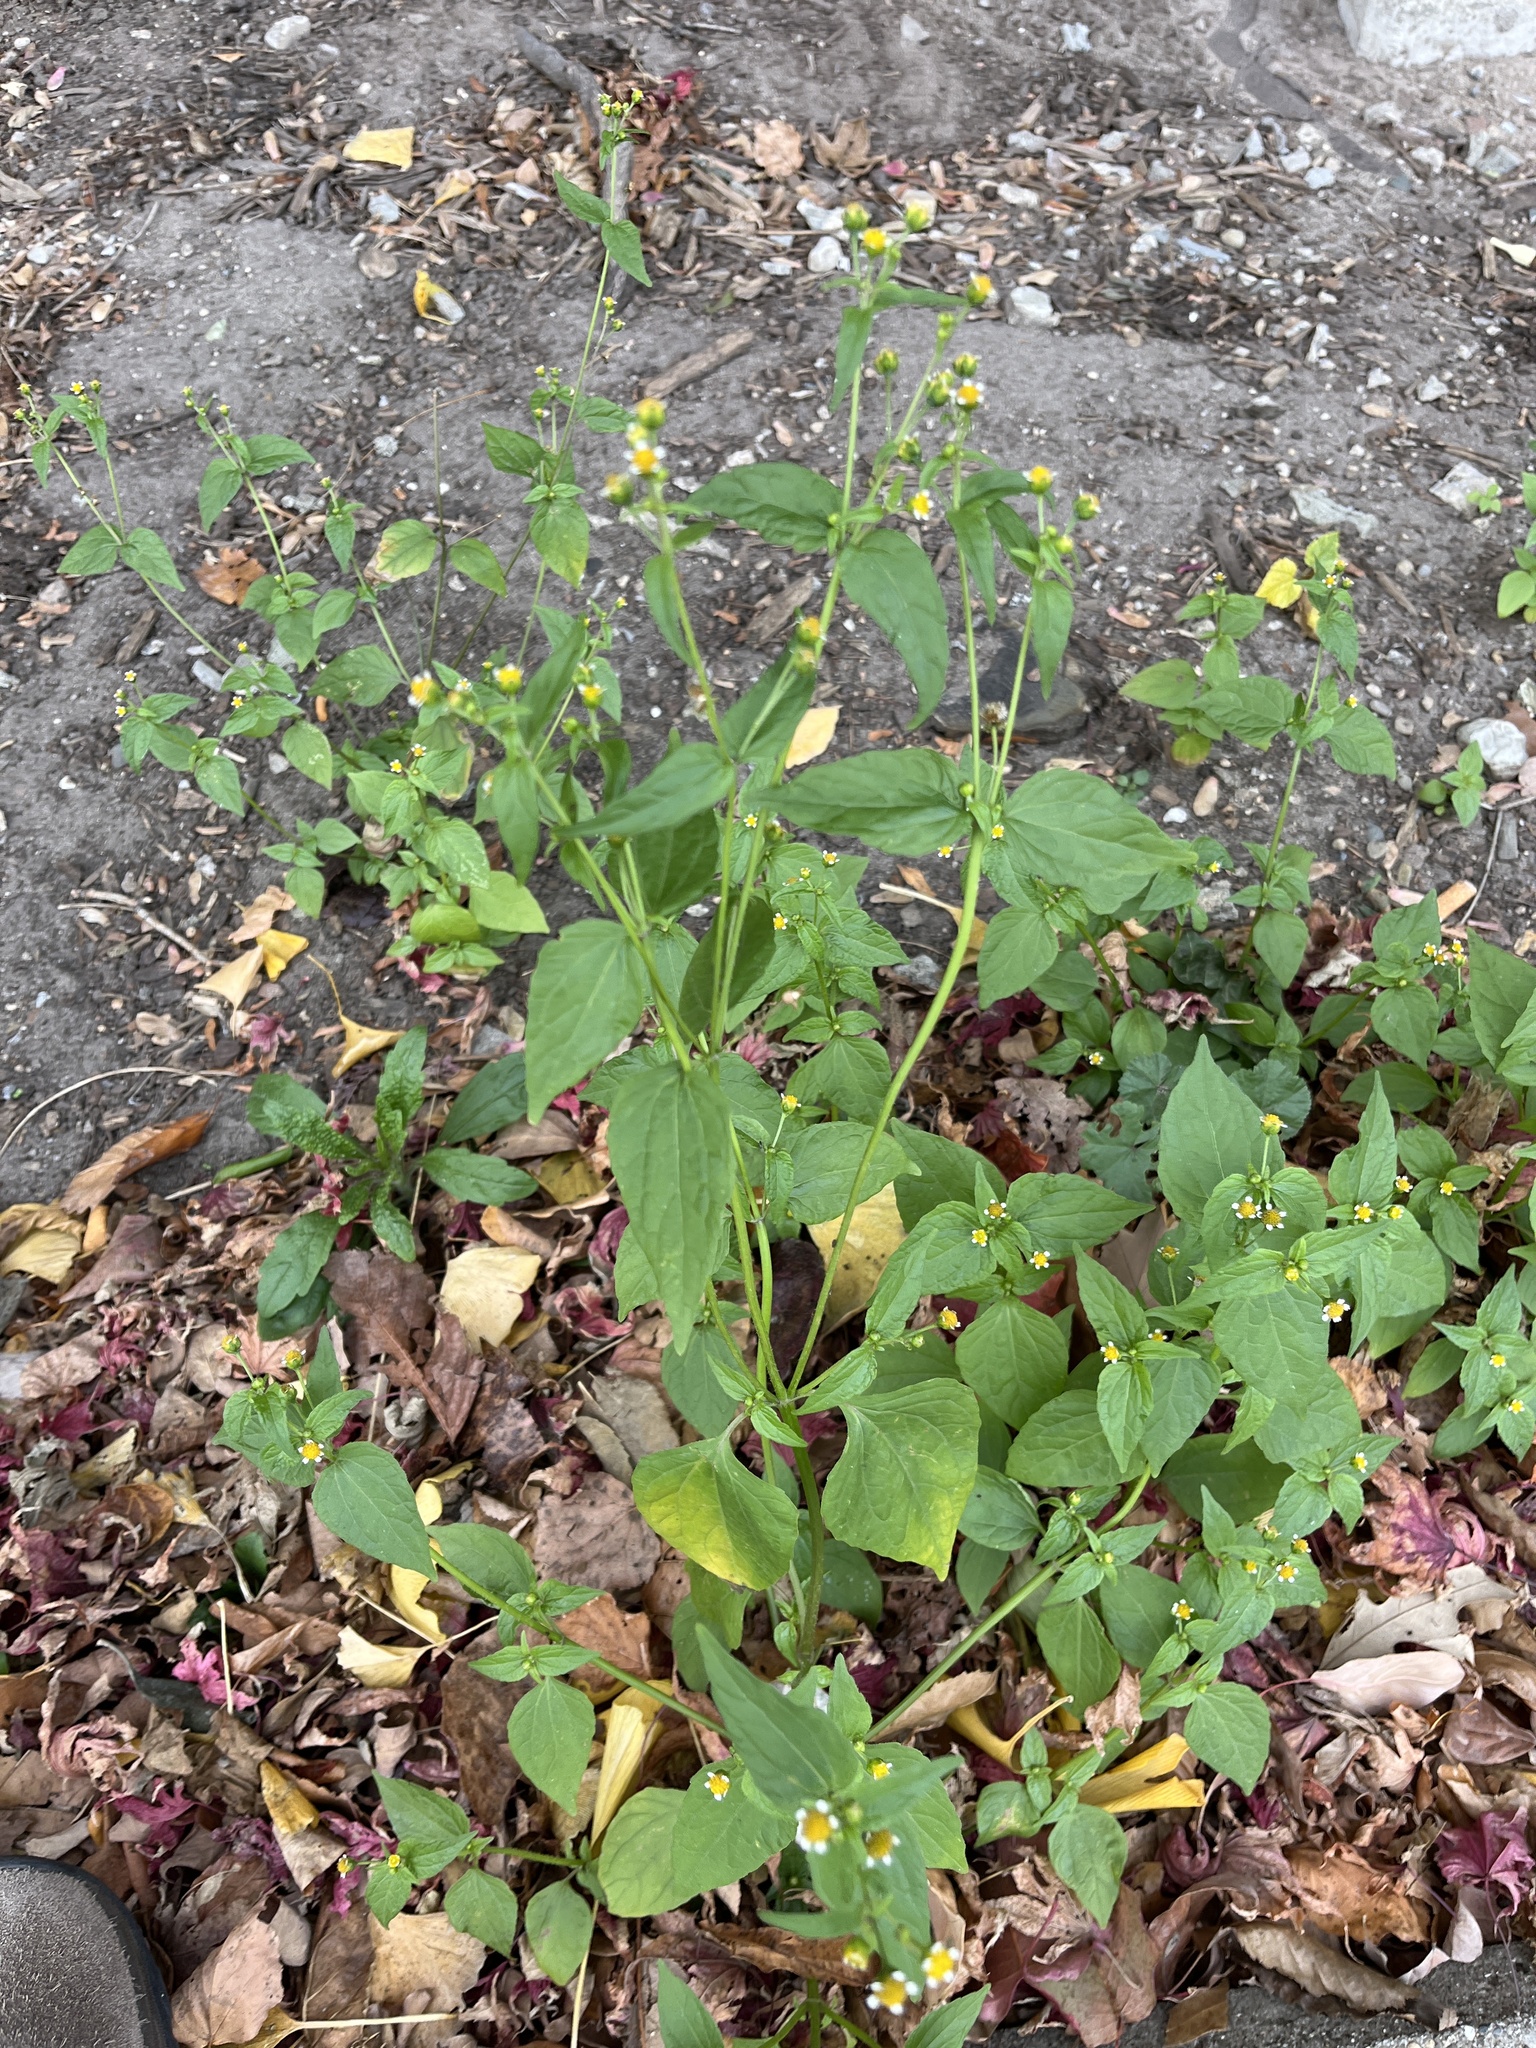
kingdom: Plantae
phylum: Tracheophyta
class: Magnoliopsida
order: Asterales
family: Asteraceae
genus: Galinsoga
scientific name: Galinsoga parviflora
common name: Gallant soldier
